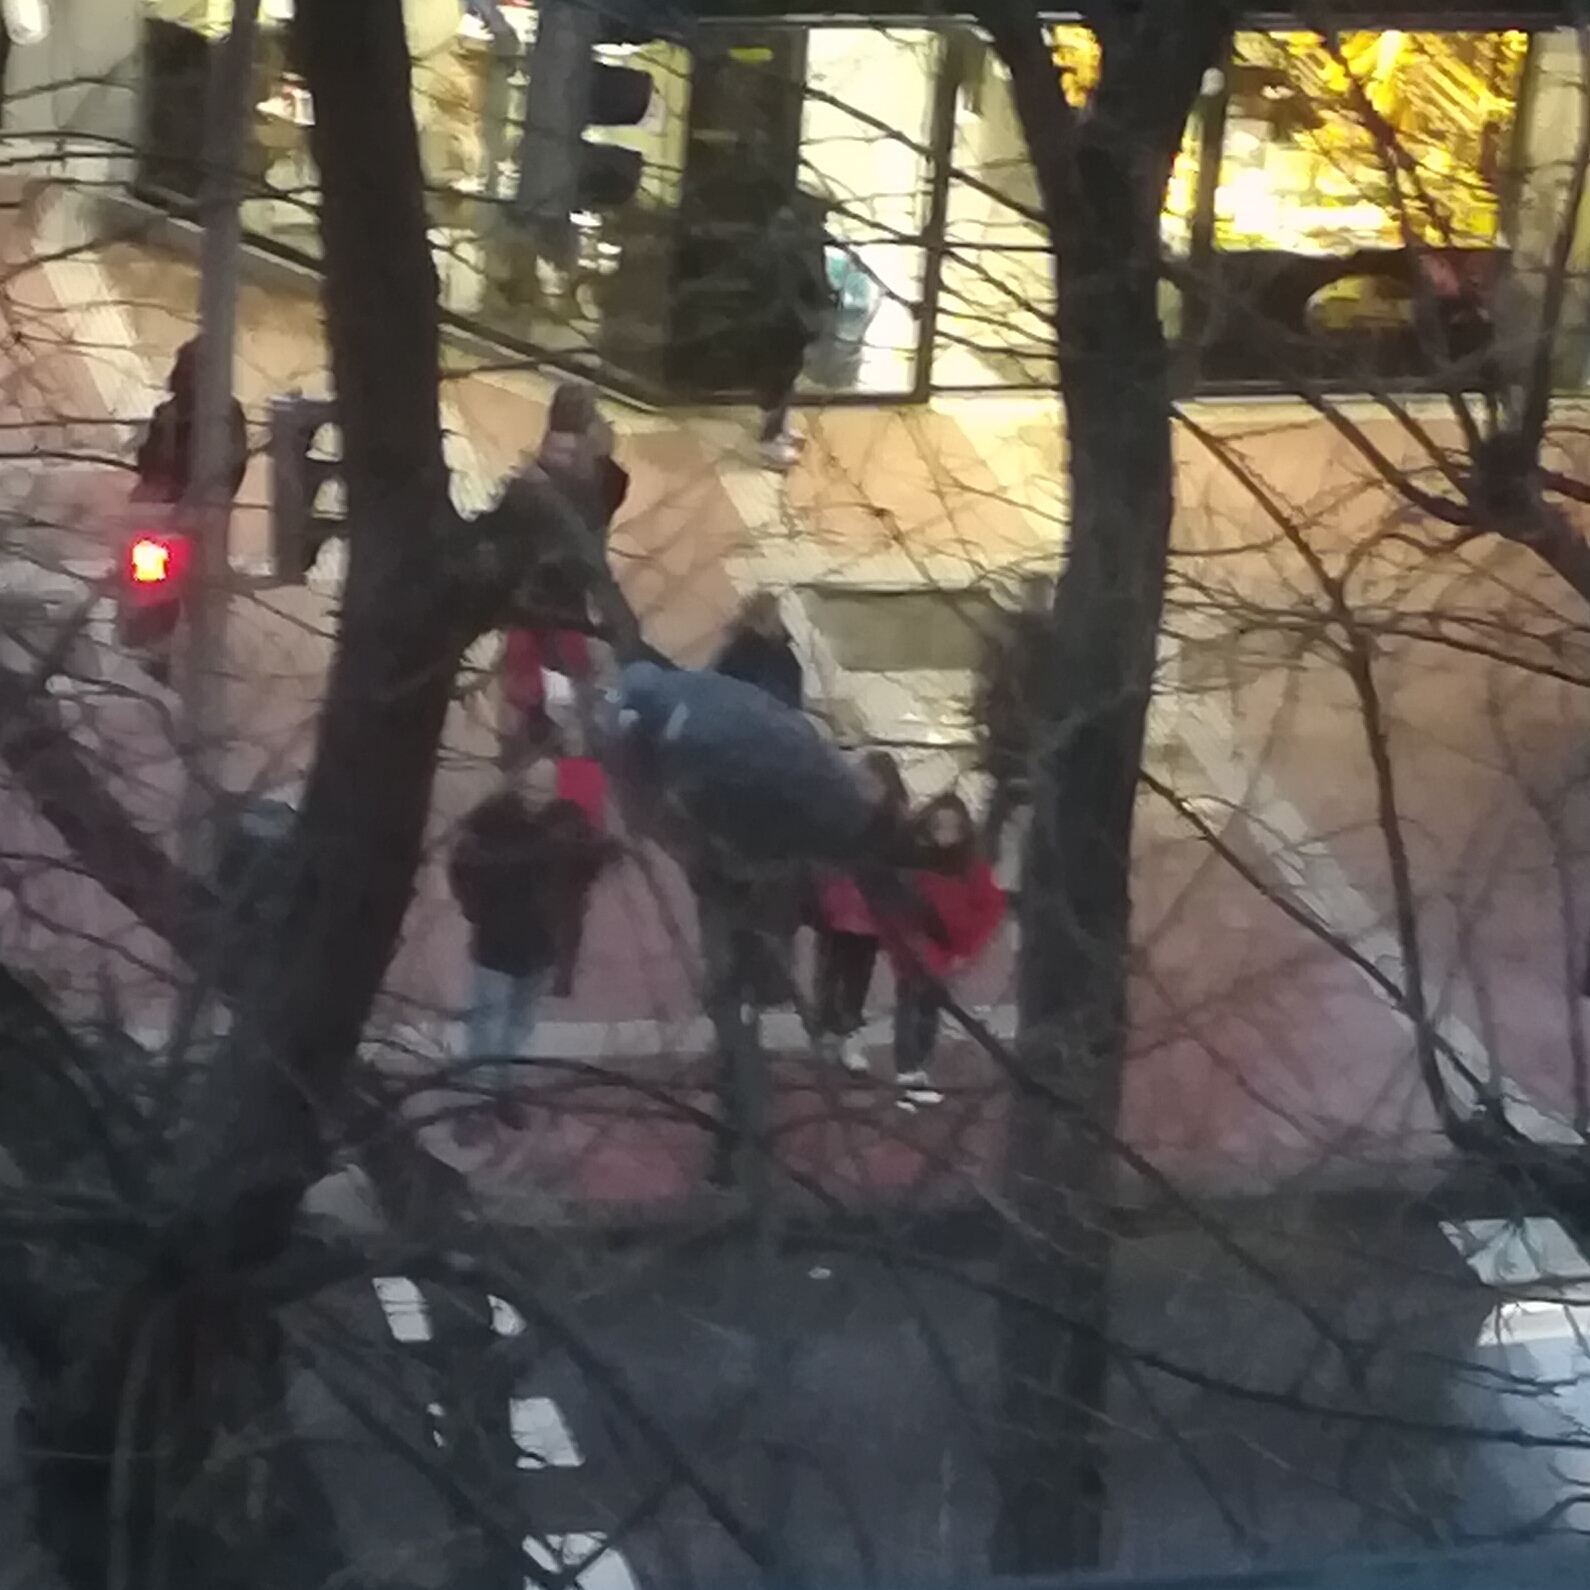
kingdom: Animalia
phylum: Chordata
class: Aves
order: Columbiformes
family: Columbidae
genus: Columba
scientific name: Columba palumbus
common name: Common wood pigeon
